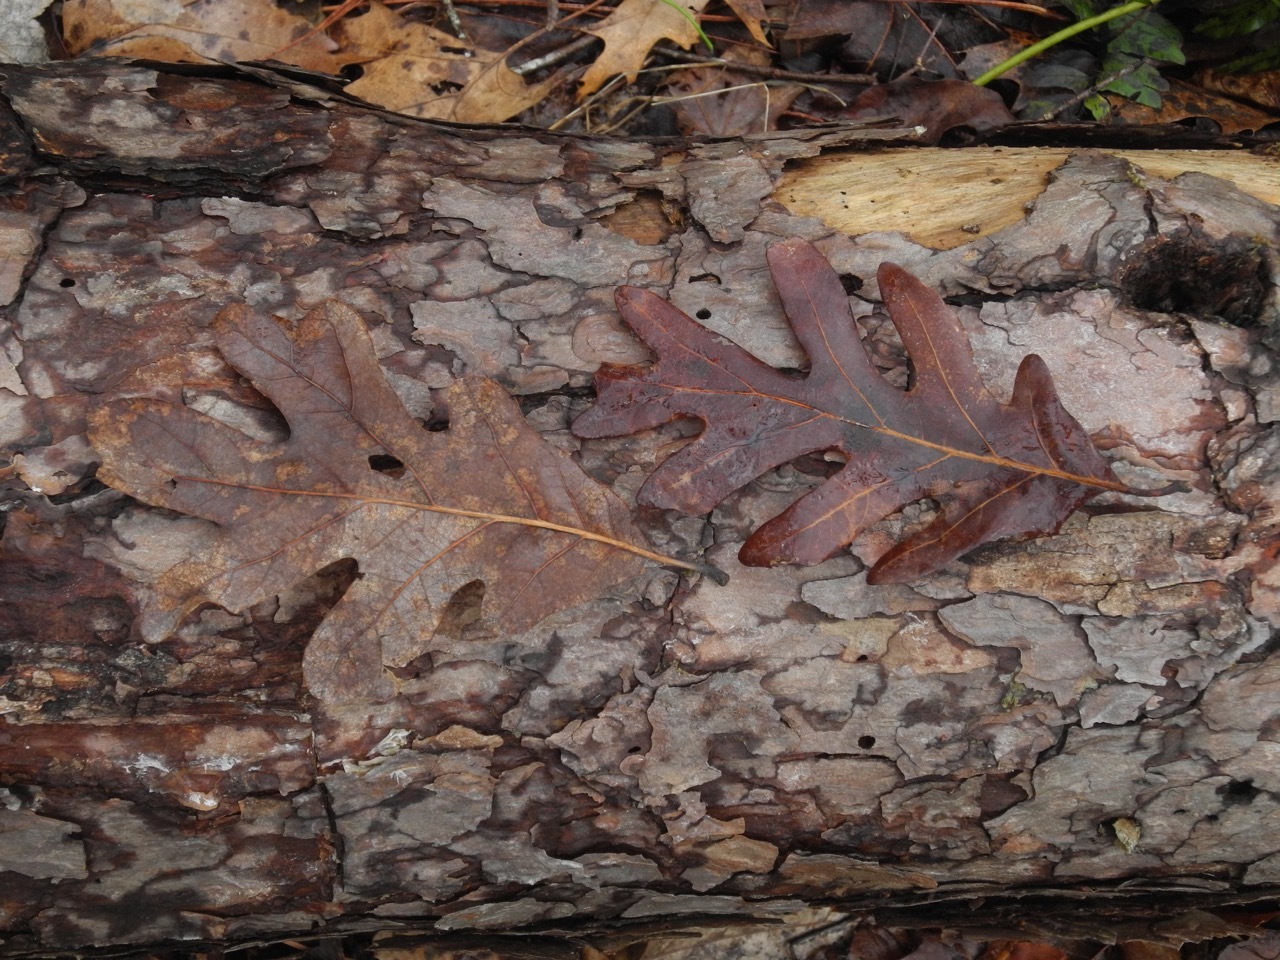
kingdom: Plantae
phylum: Tracheophyta
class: Magnoliopsida
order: Fagales
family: Fagaceae
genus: Quercus
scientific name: Quercus alba
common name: White oak
